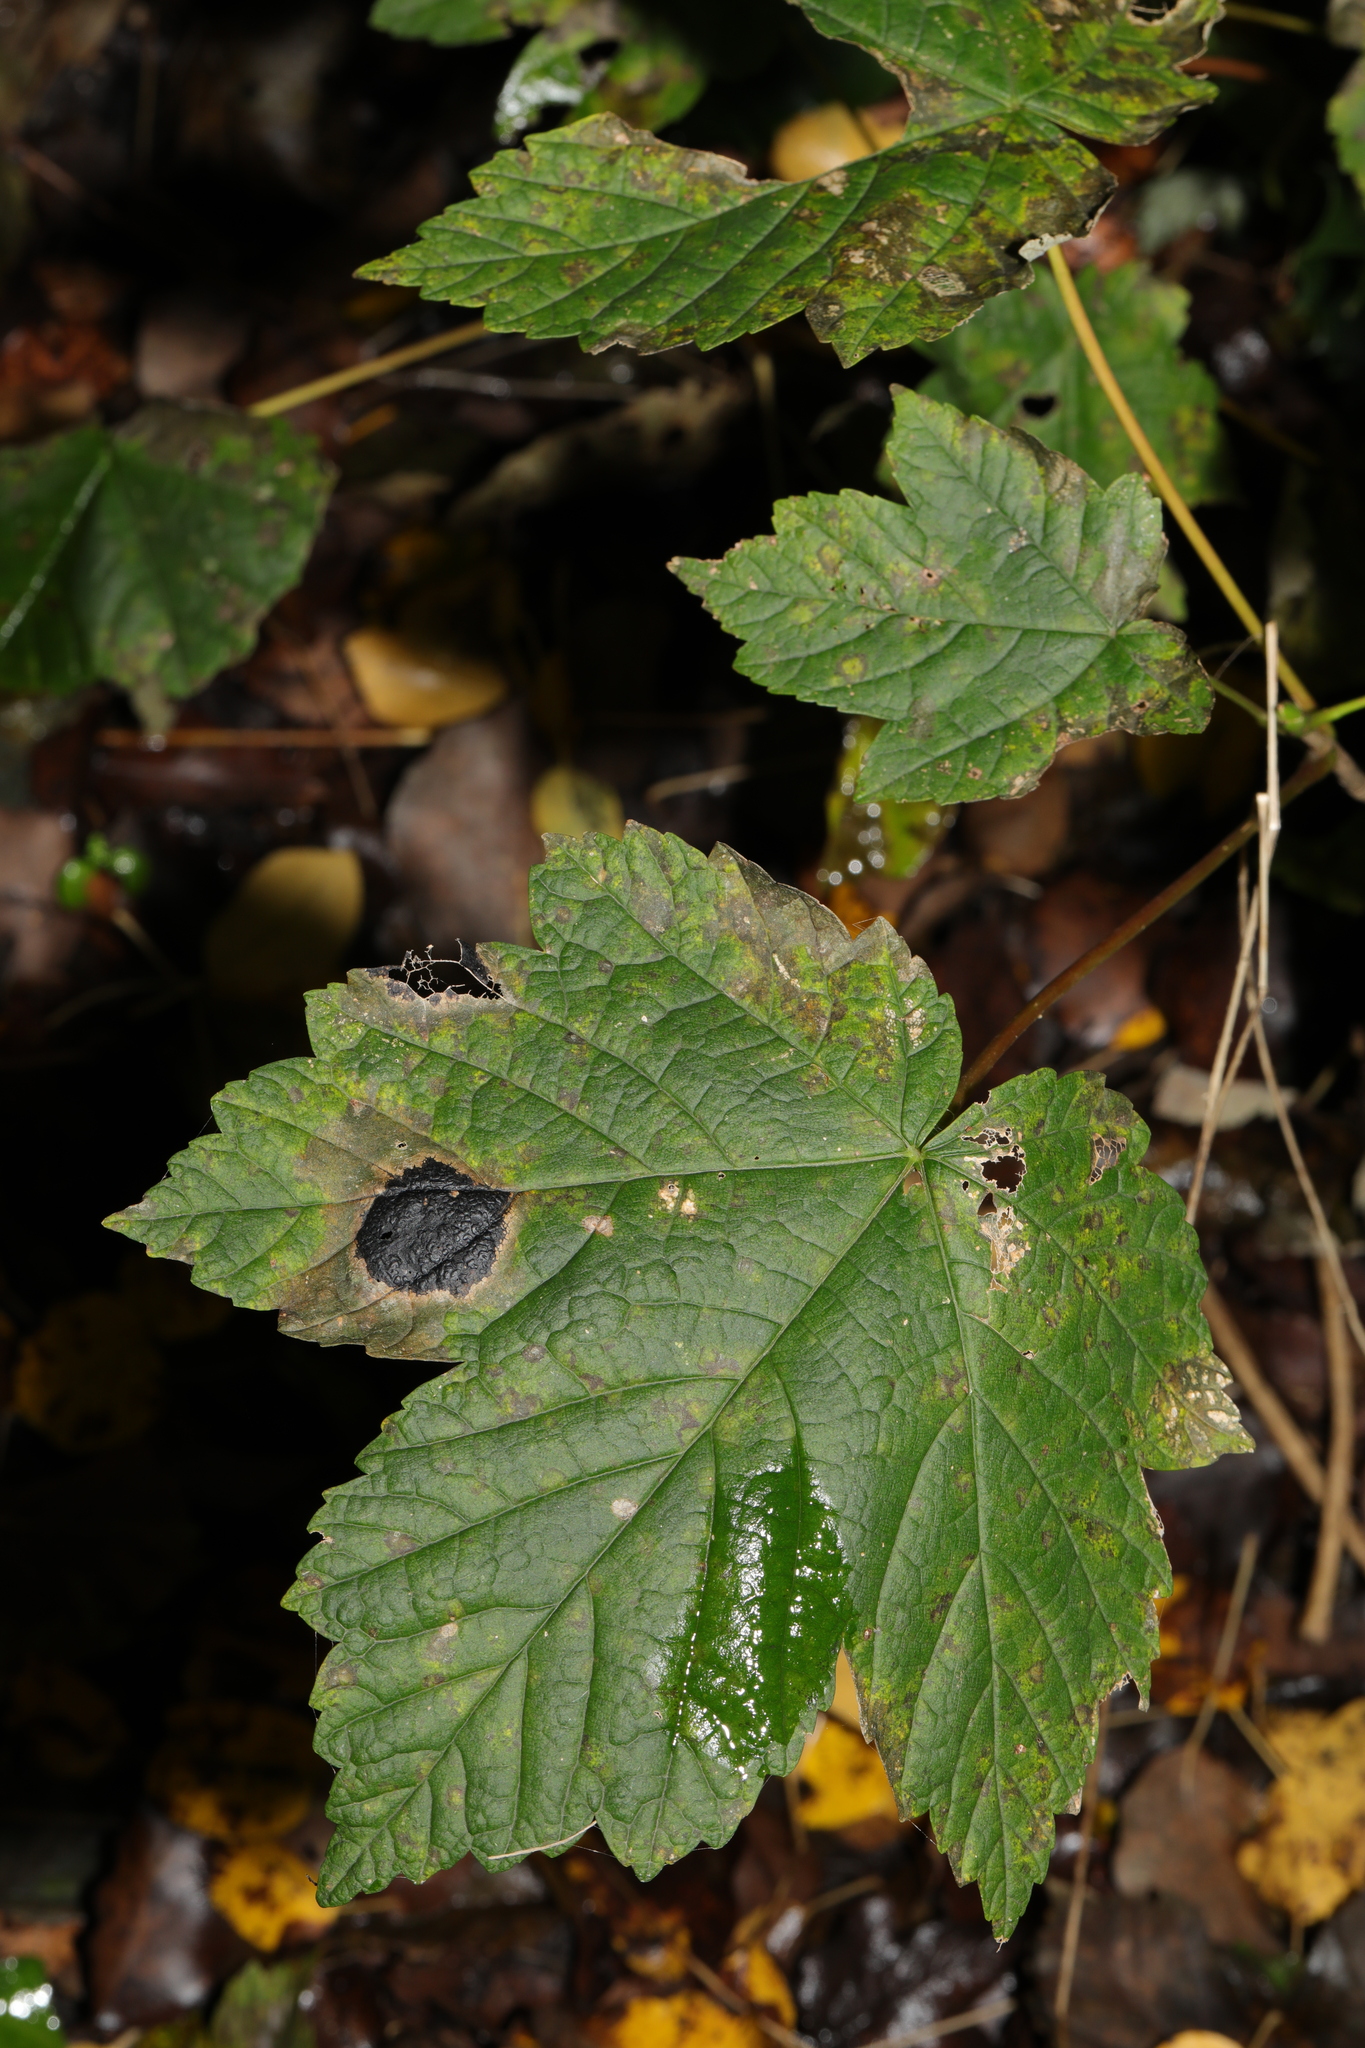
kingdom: Plantae
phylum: Tracheophyta
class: Magnoliopsida
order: Sapindales
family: Sapindaceae
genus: Acer
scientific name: Acer pseudoplatanus
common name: Sycamore
